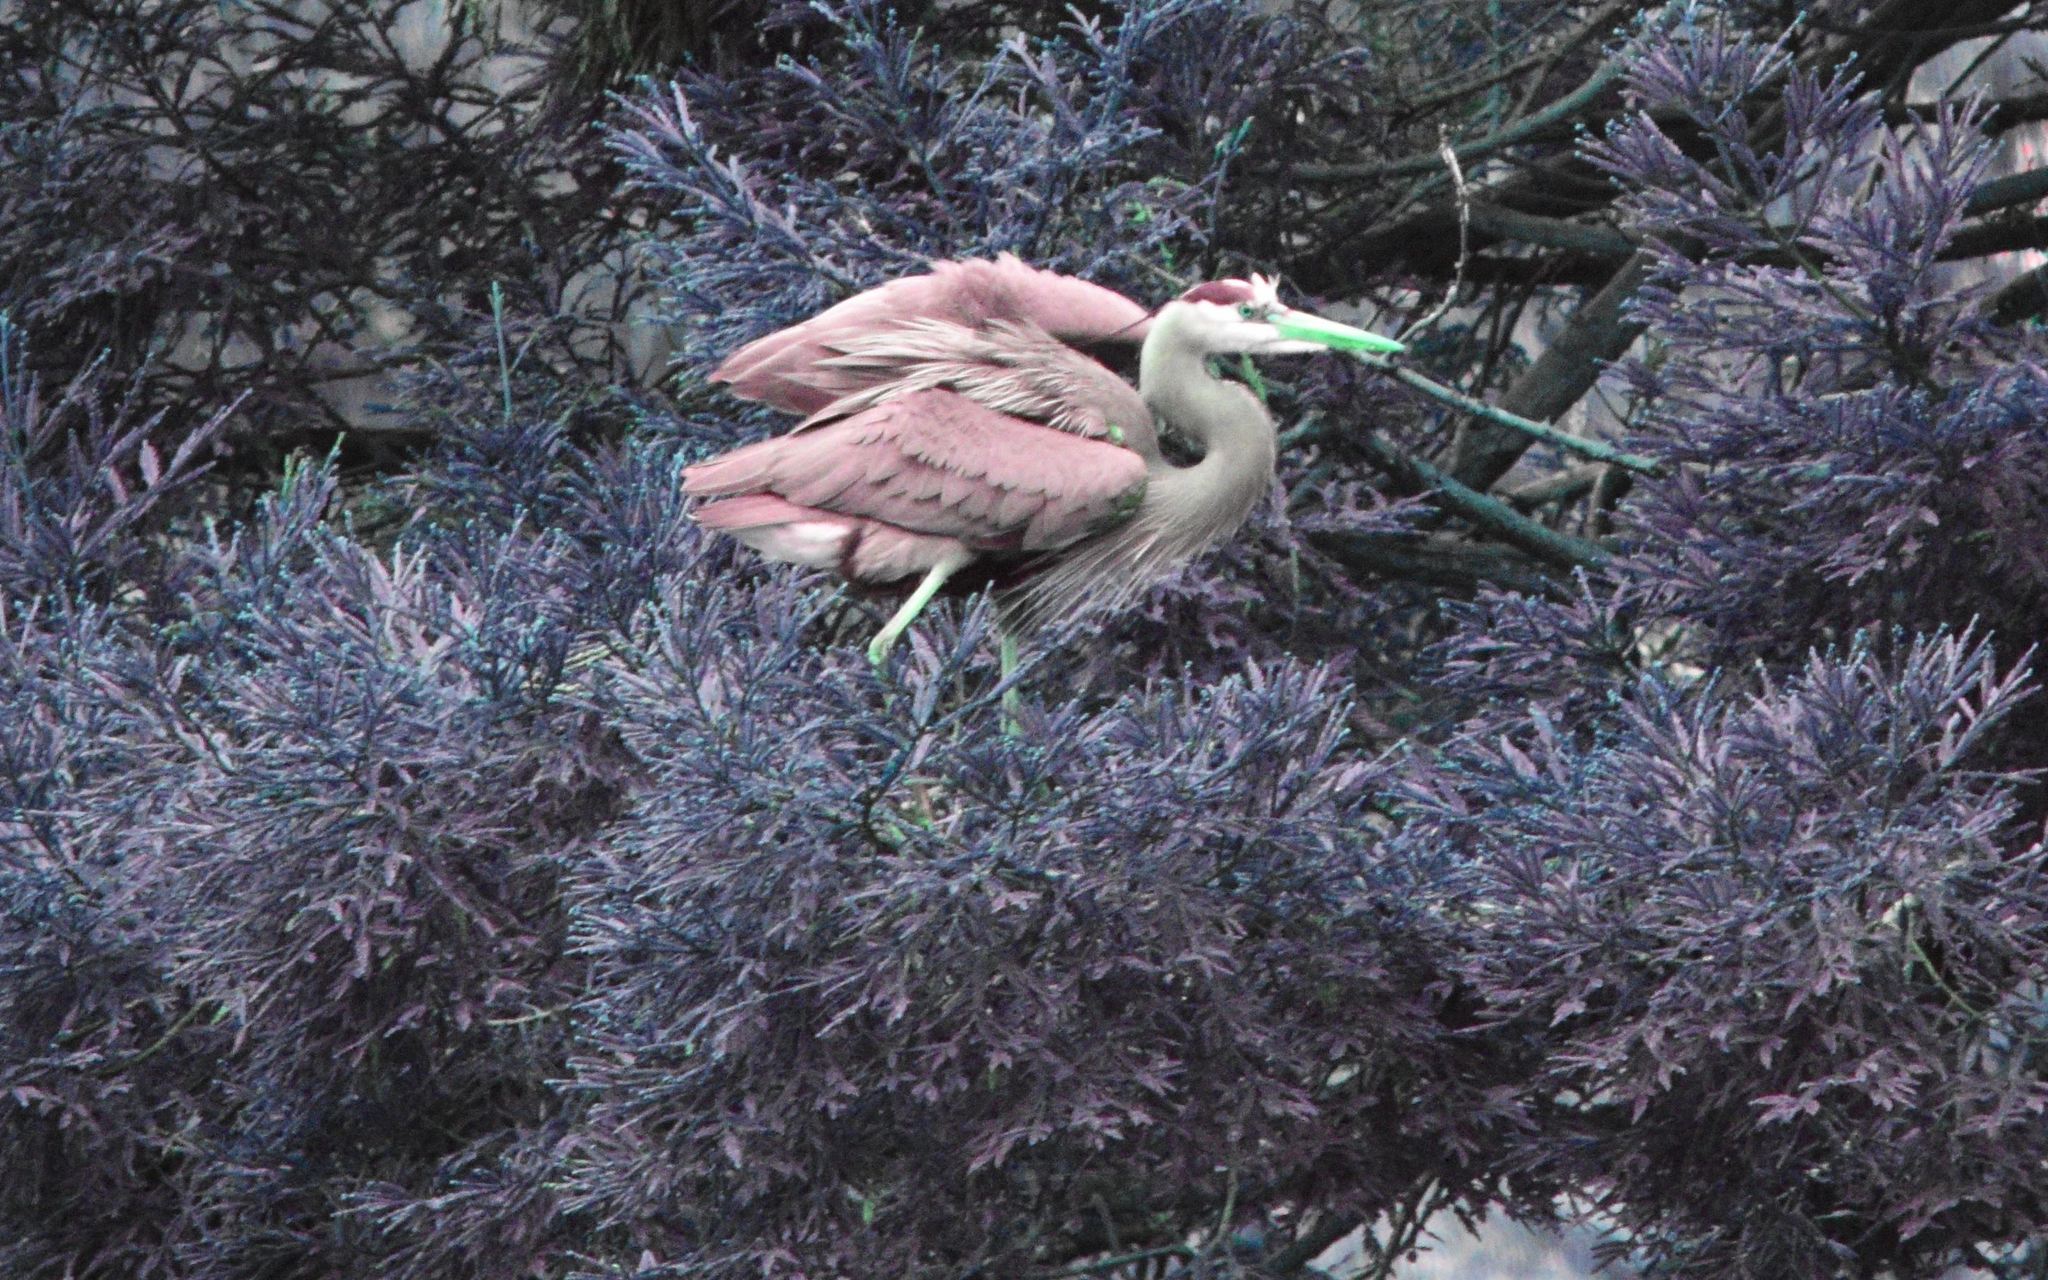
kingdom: Animalia
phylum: Chordata
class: Aves
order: Pelecaniformes
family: Ardeidae
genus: Ardea
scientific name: Ardea herodias
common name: Great blue heron
